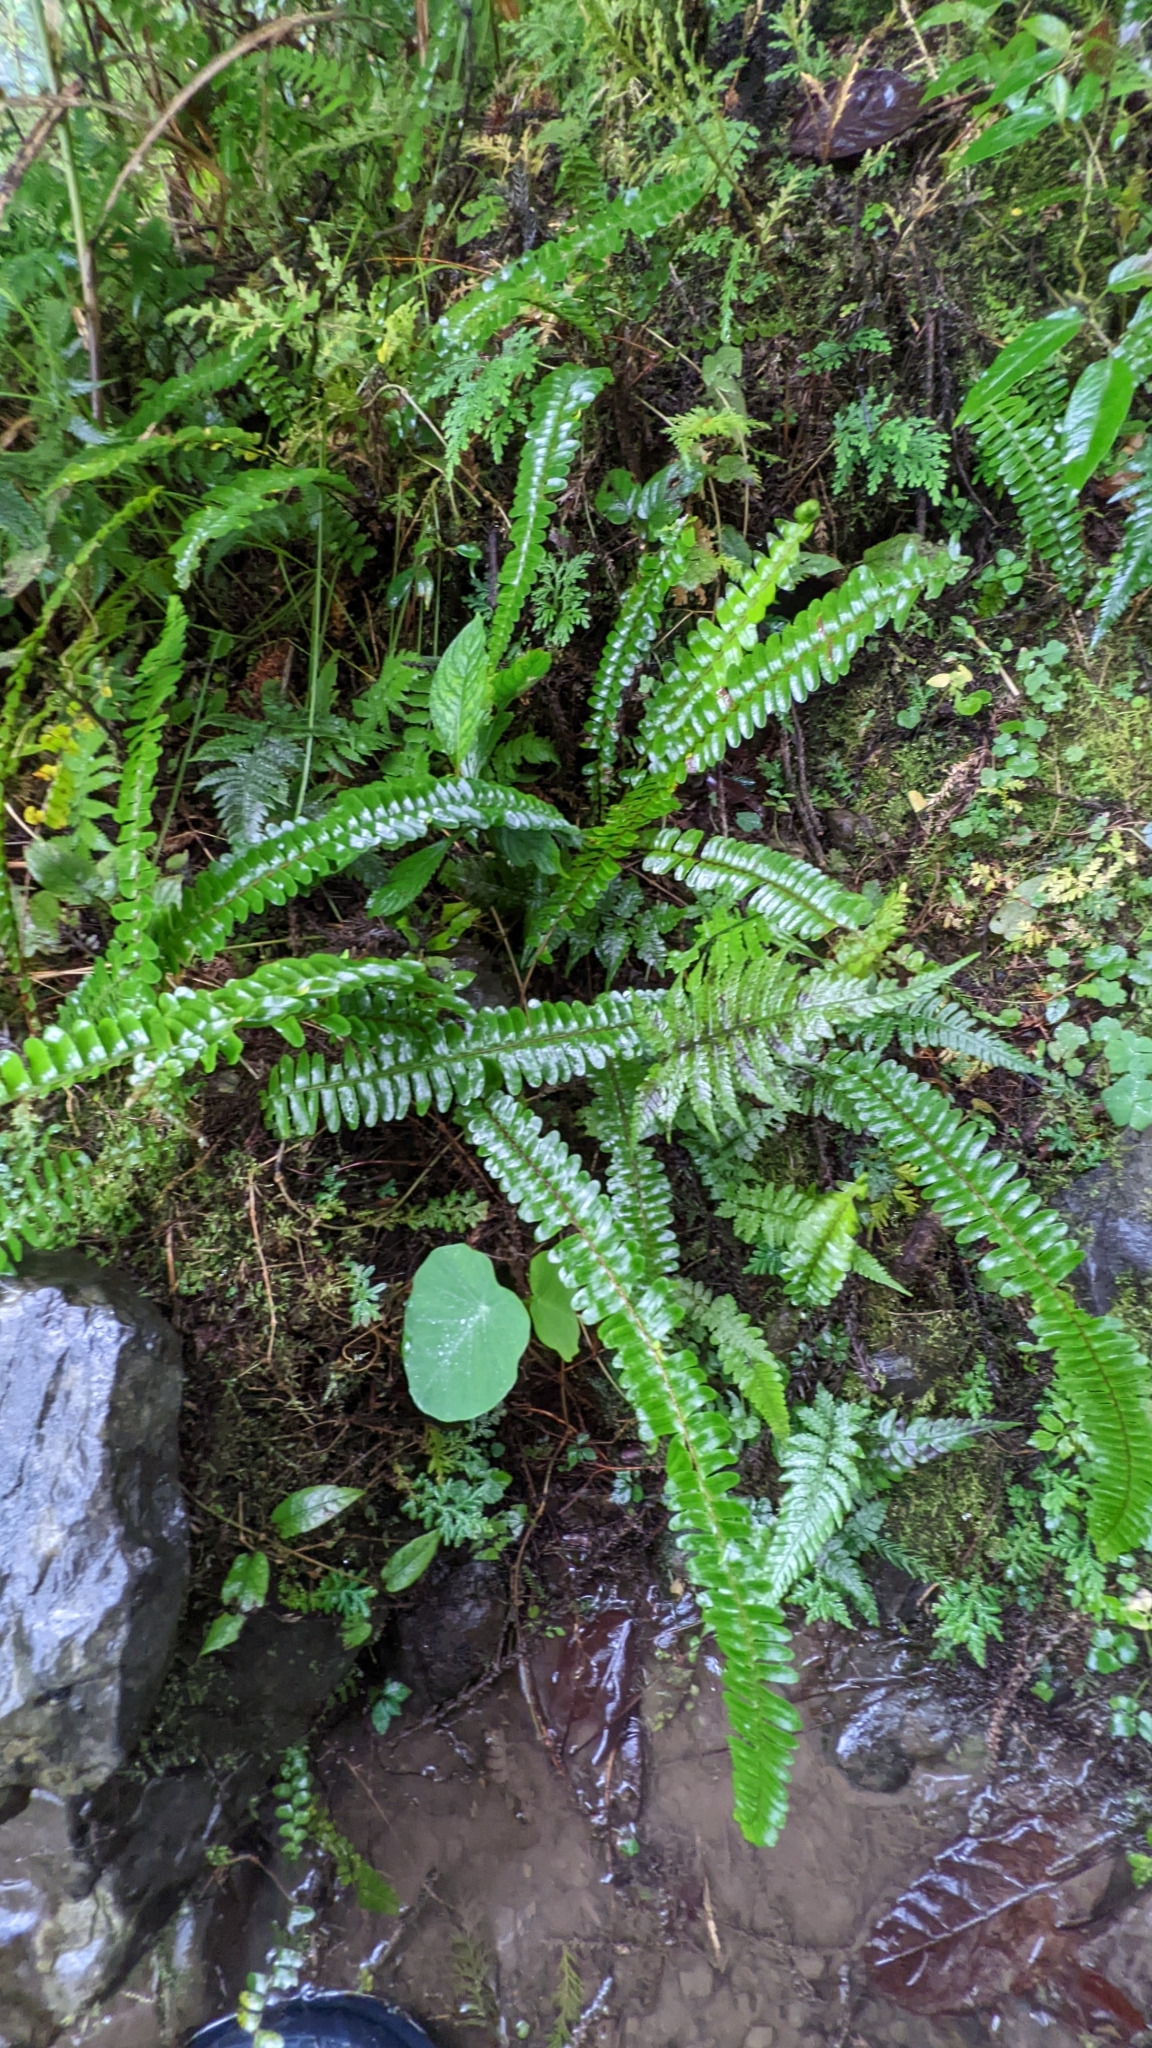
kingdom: Plantae
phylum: Tracheophyta
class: Polypodiopsida
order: Polypodiales
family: Nephrolepidaceae
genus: Nephrolepis
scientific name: Nephrolepis cordifolia
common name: Narrow swordfern
